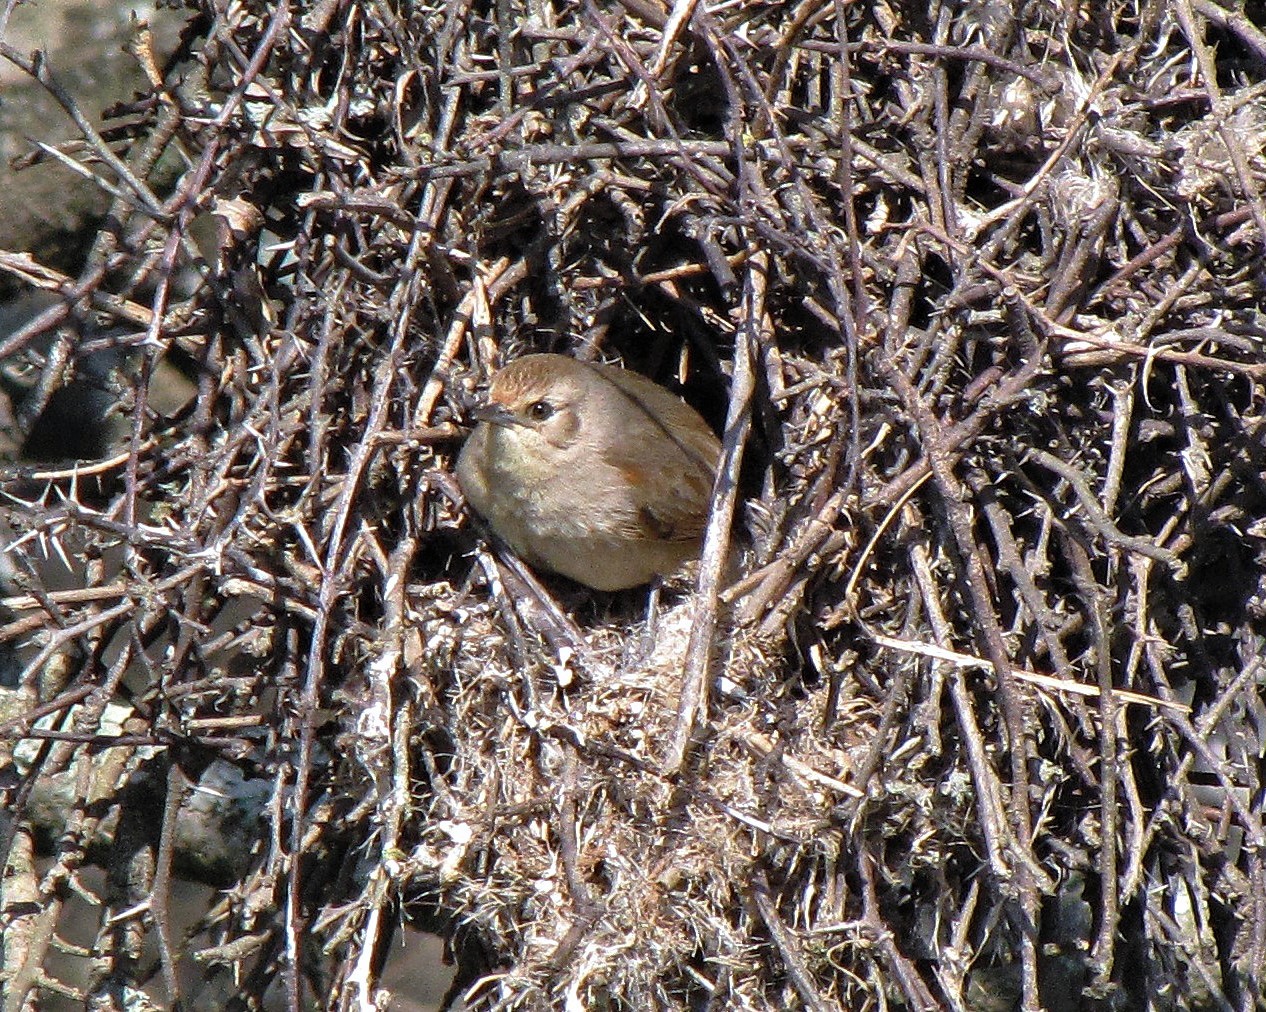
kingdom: Animalia
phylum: Chordata
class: Aves
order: Passeriformes
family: Furnariidae
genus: Phacellodomus
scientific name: Phacellodomus sibilatrix
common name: Little thornbird
